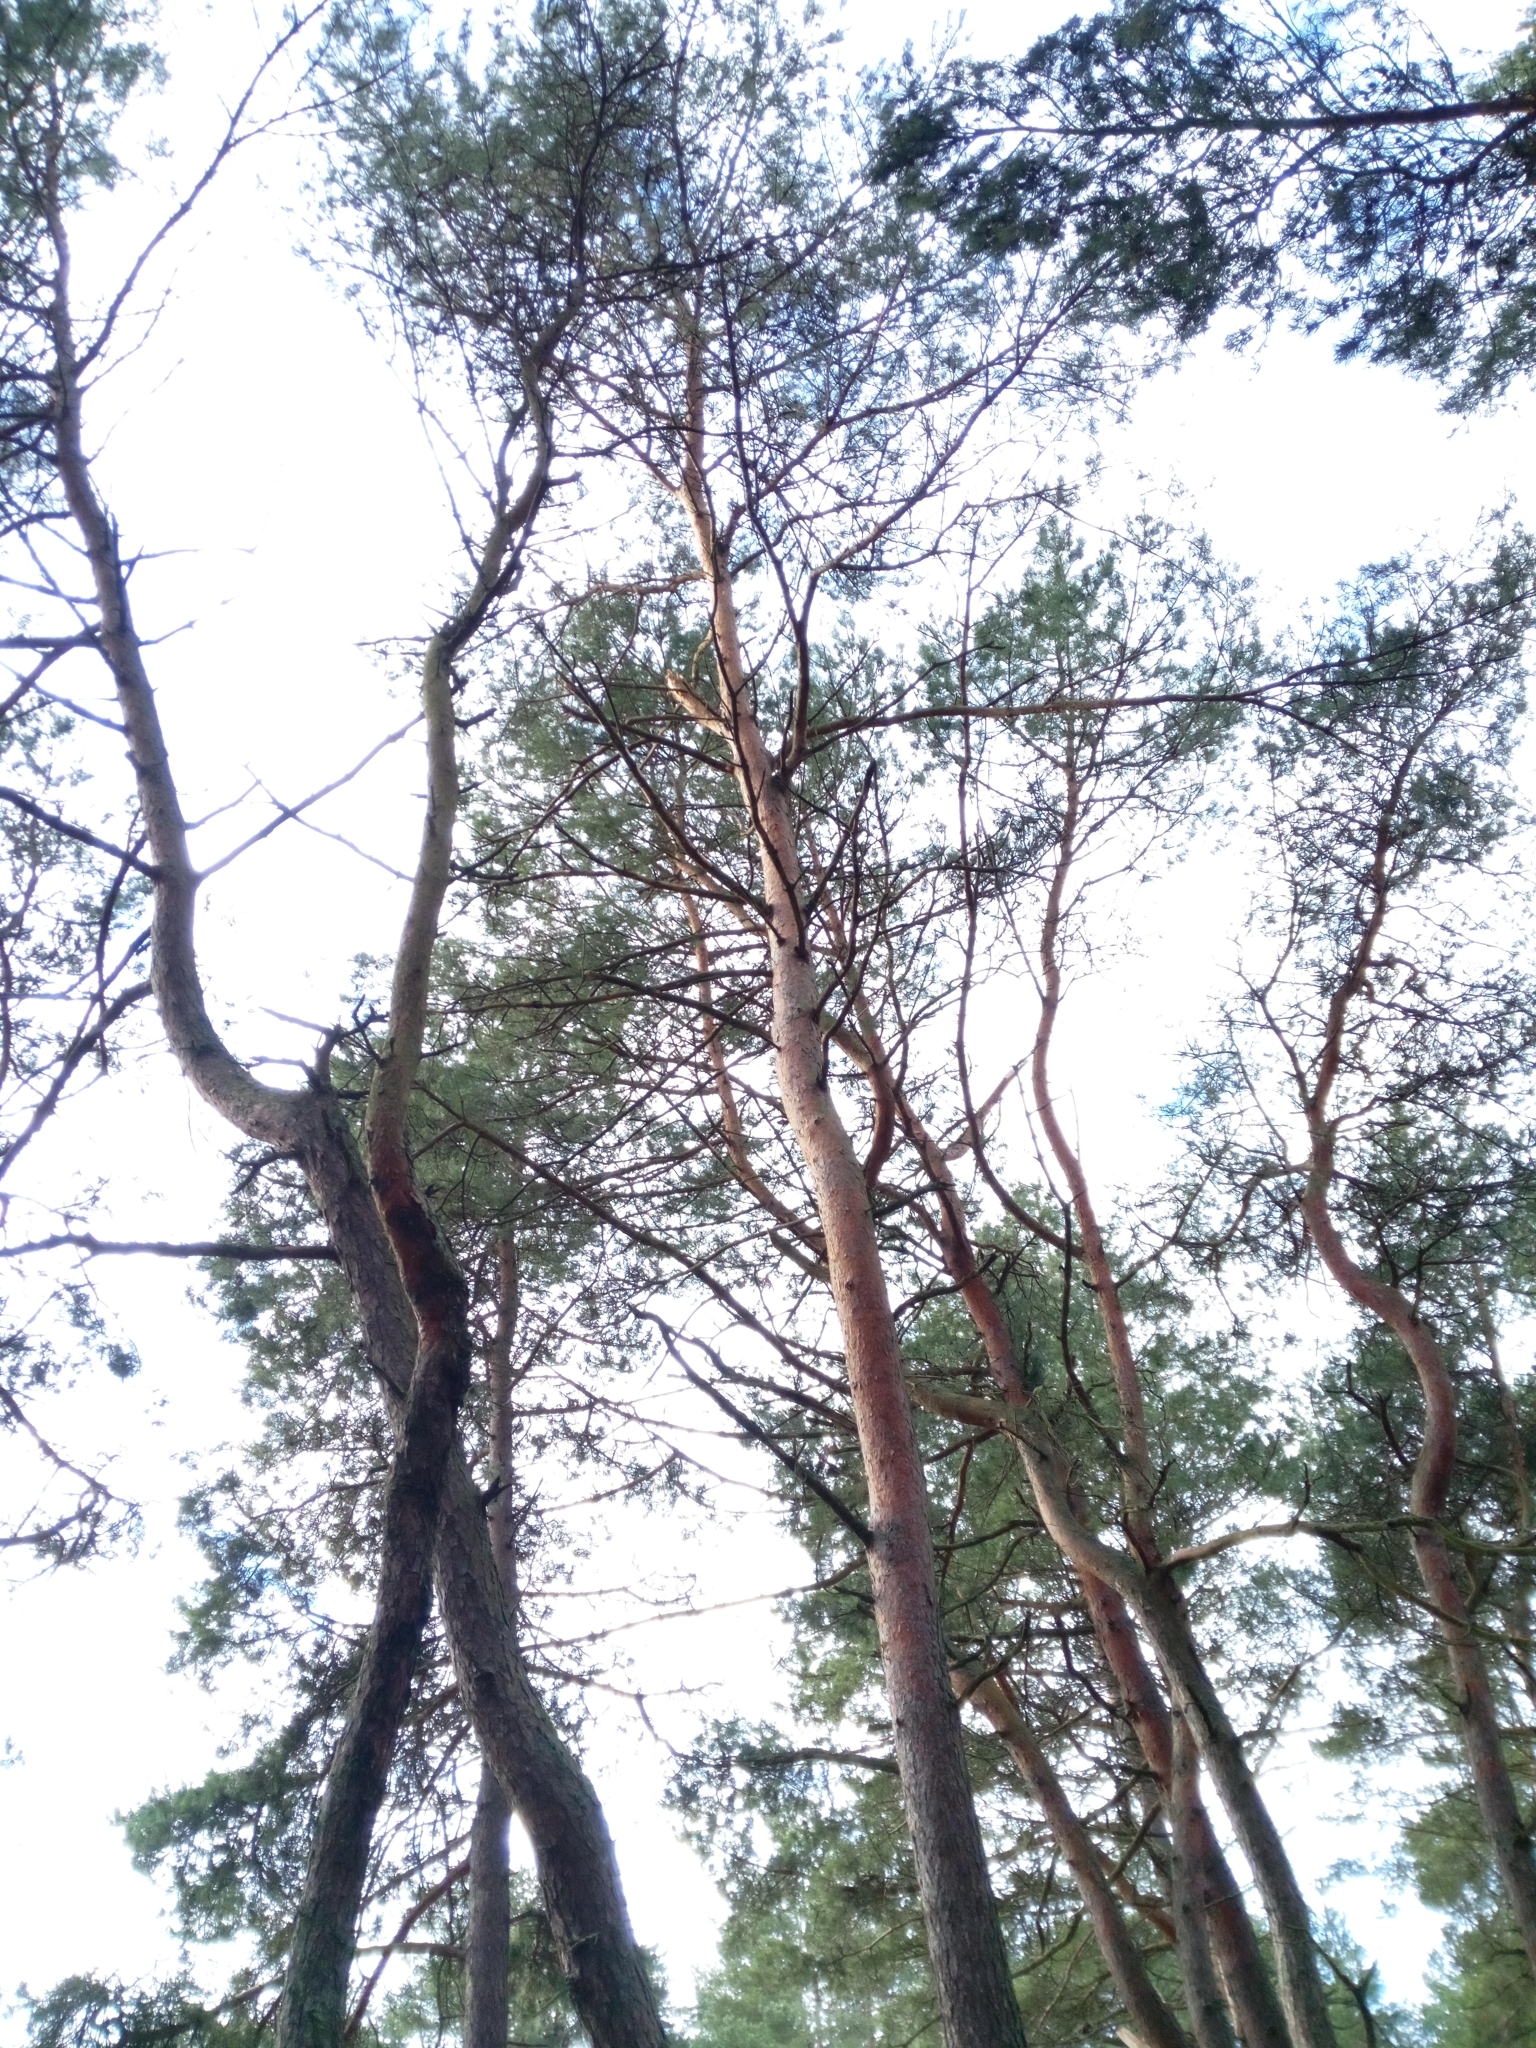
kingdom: Plantae
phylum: Tracheophyta
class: Pinopsida
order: Pinales
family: Pinaceae
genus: Pinus
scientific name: Pinus sylvestris
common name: Scots pine
